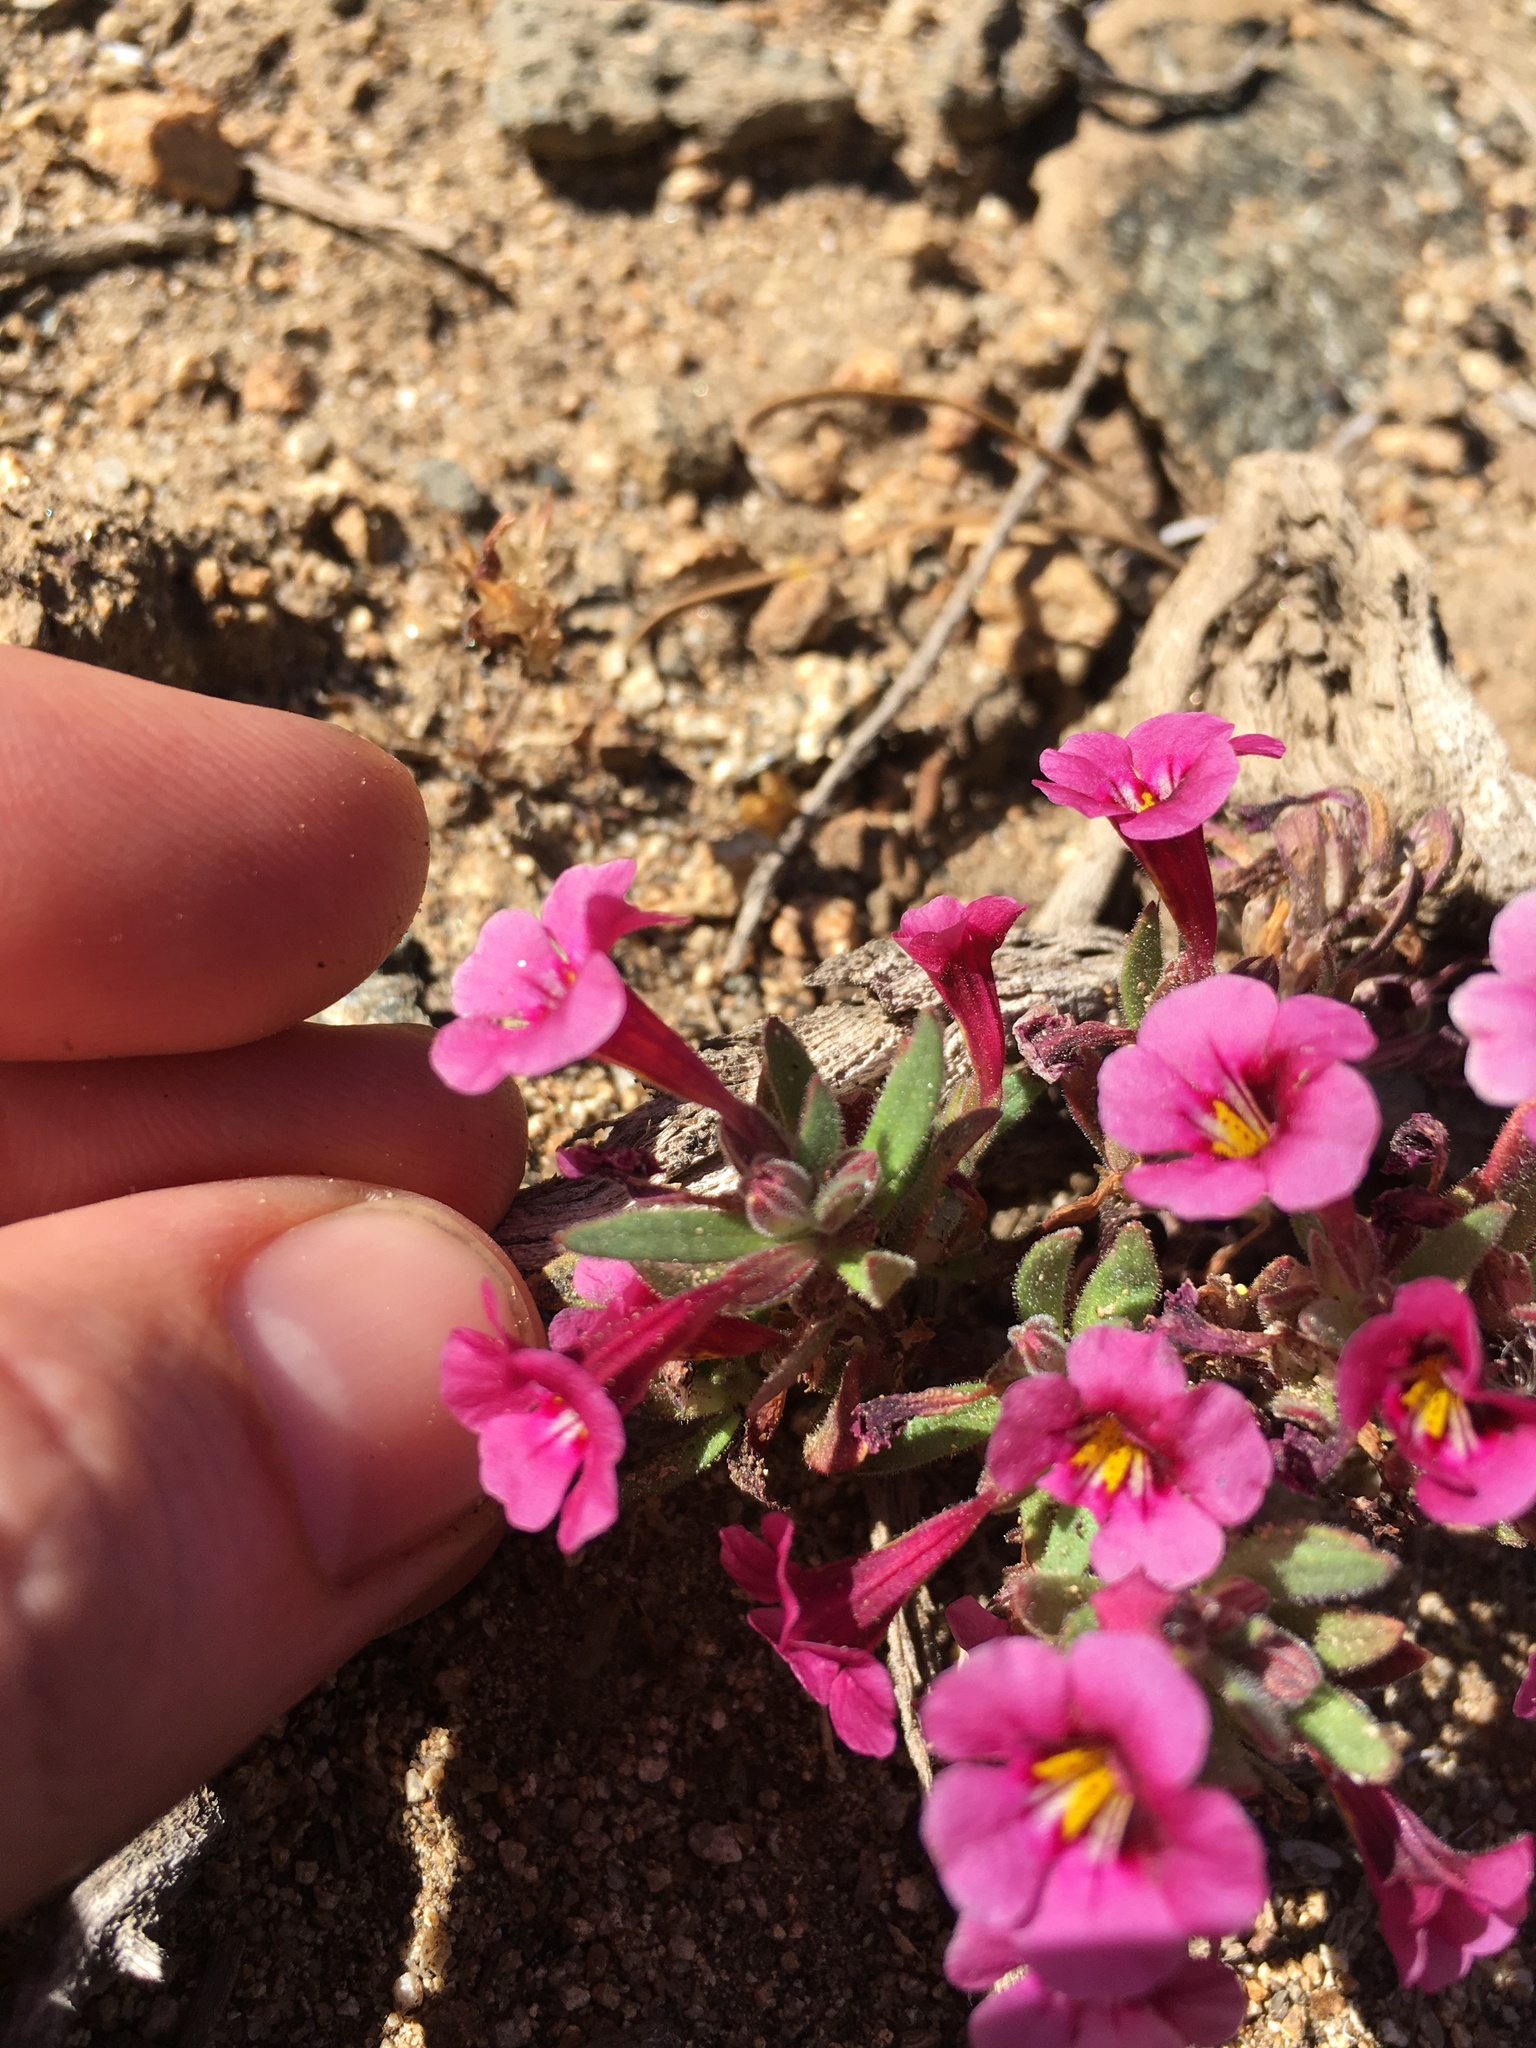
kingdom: Plantae
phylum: Tracheophyta
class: Magnoliopsida
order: Lamiales
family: Phrymaceae
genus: Diplacus
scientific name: Diplacus bicolor
